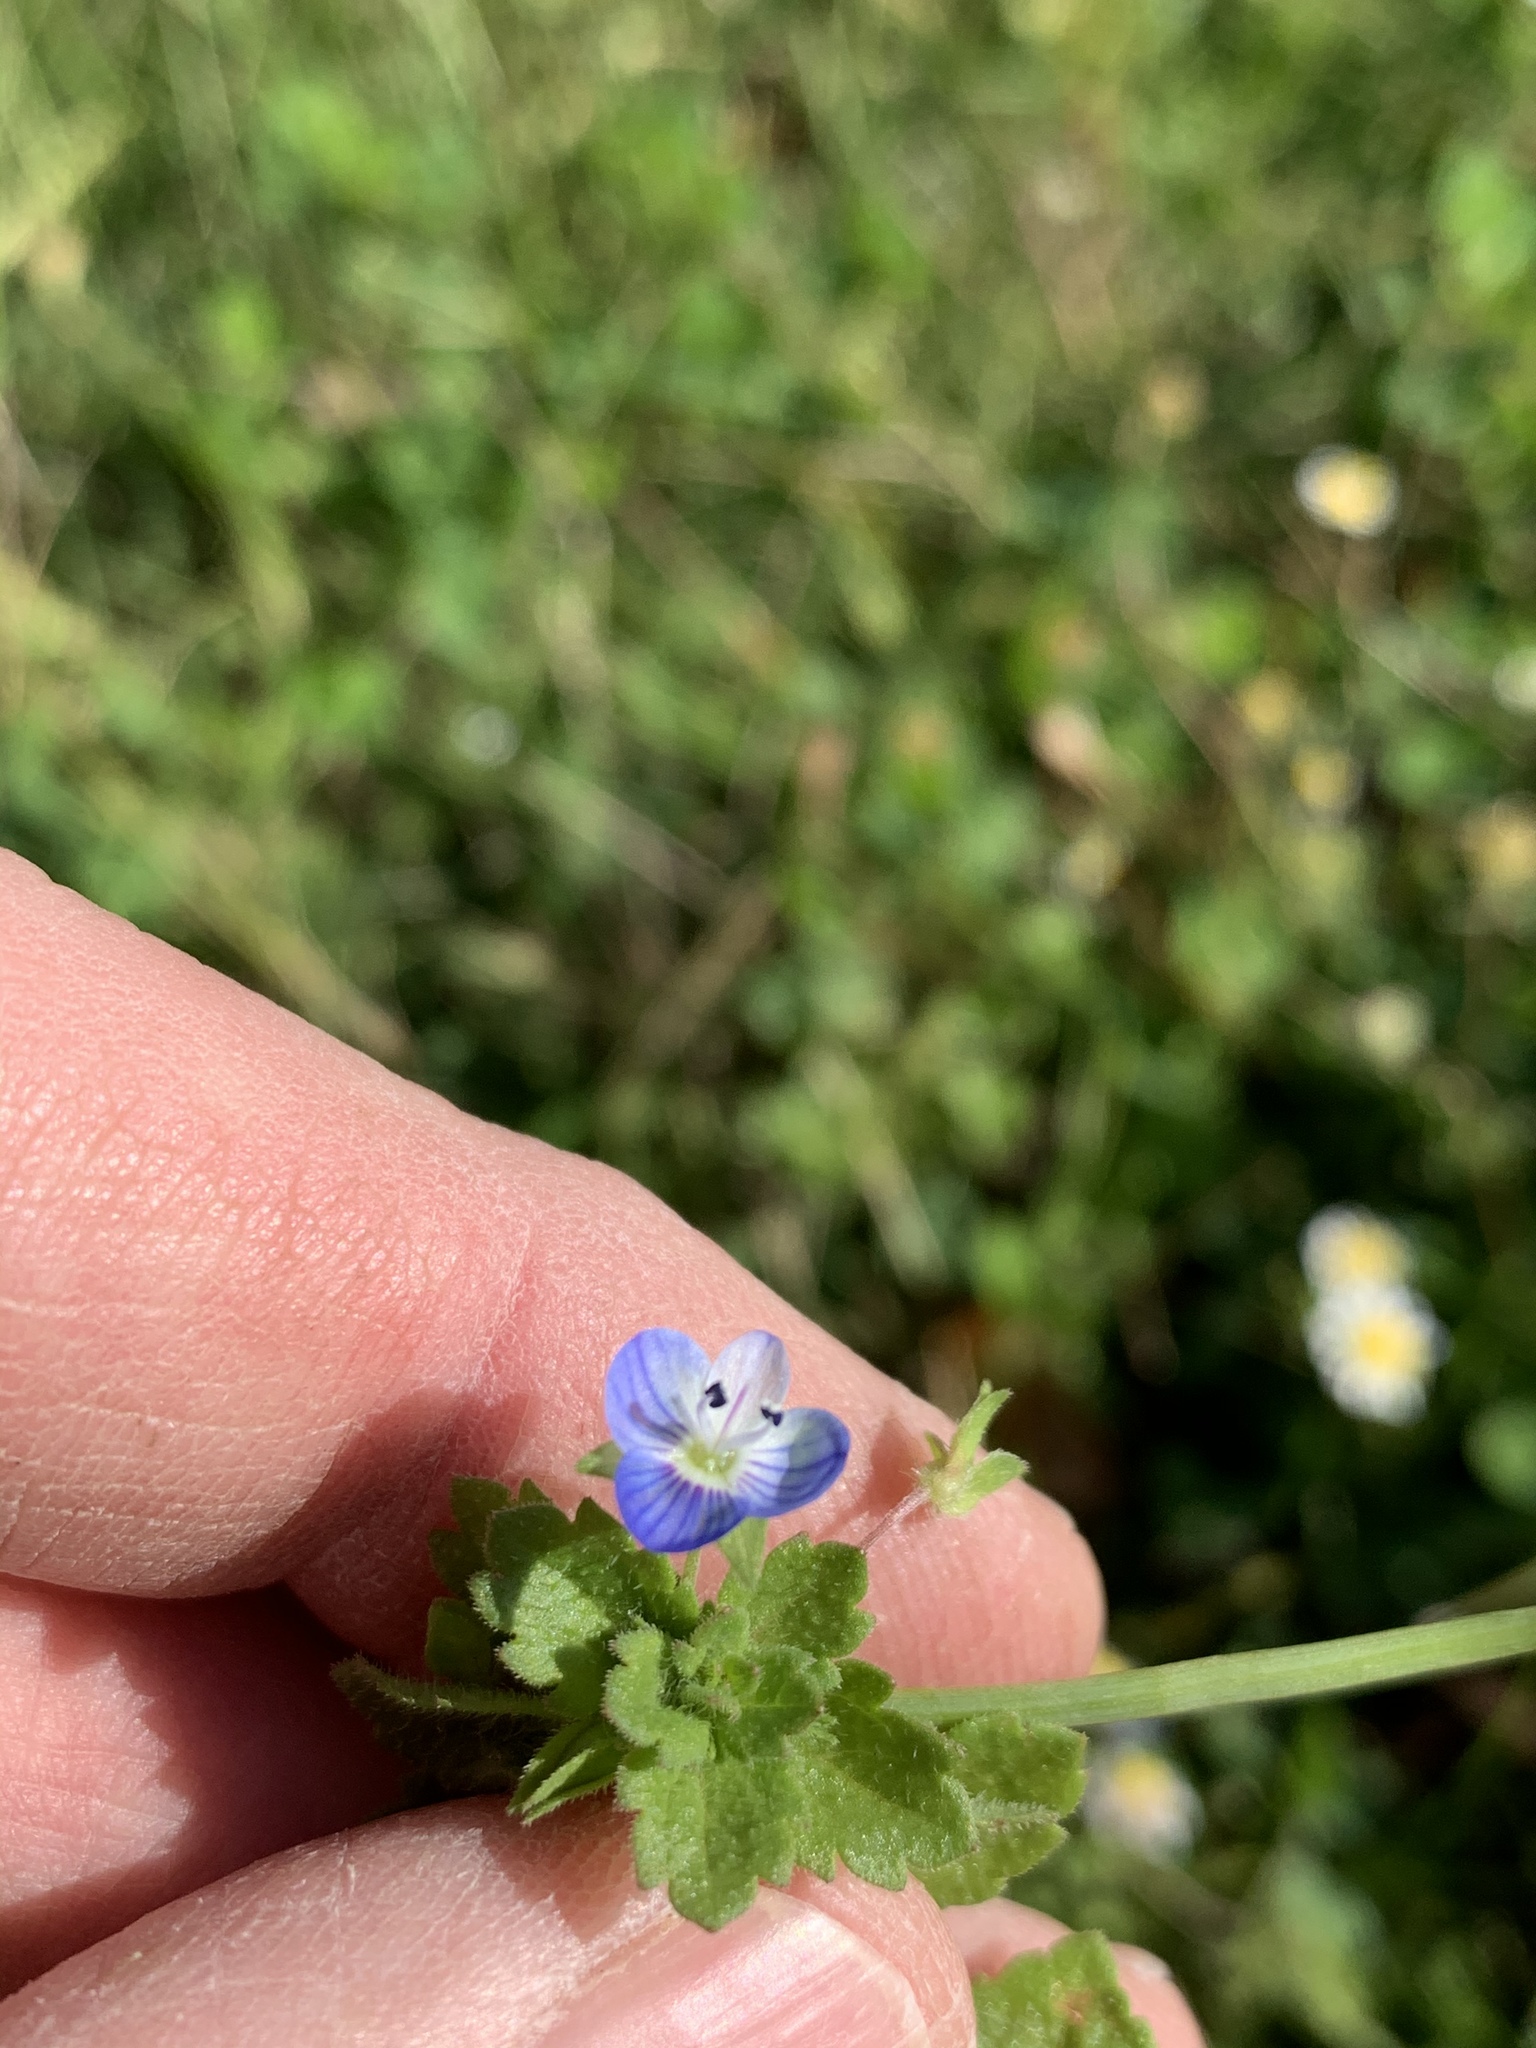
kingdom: Plantae
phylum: Tracheophyta
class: Magnoliopsida
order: Lamiales
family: Plantaginaceae
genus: Veronica
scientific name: Veronica persica
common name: Common field-speedwell
